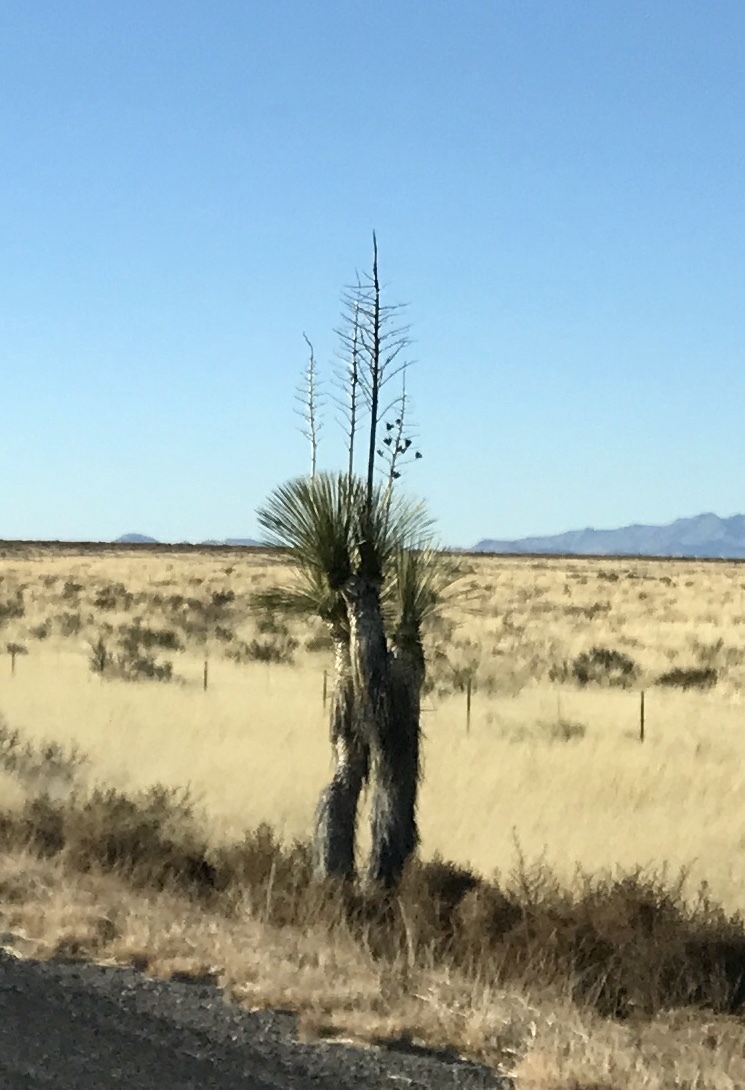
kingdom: Plantae
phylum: Tracheophyta
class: Liliopsida
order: Asparagales
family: Asparagaceae
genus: Yucca
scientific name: Yucca elata
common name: Palmella
